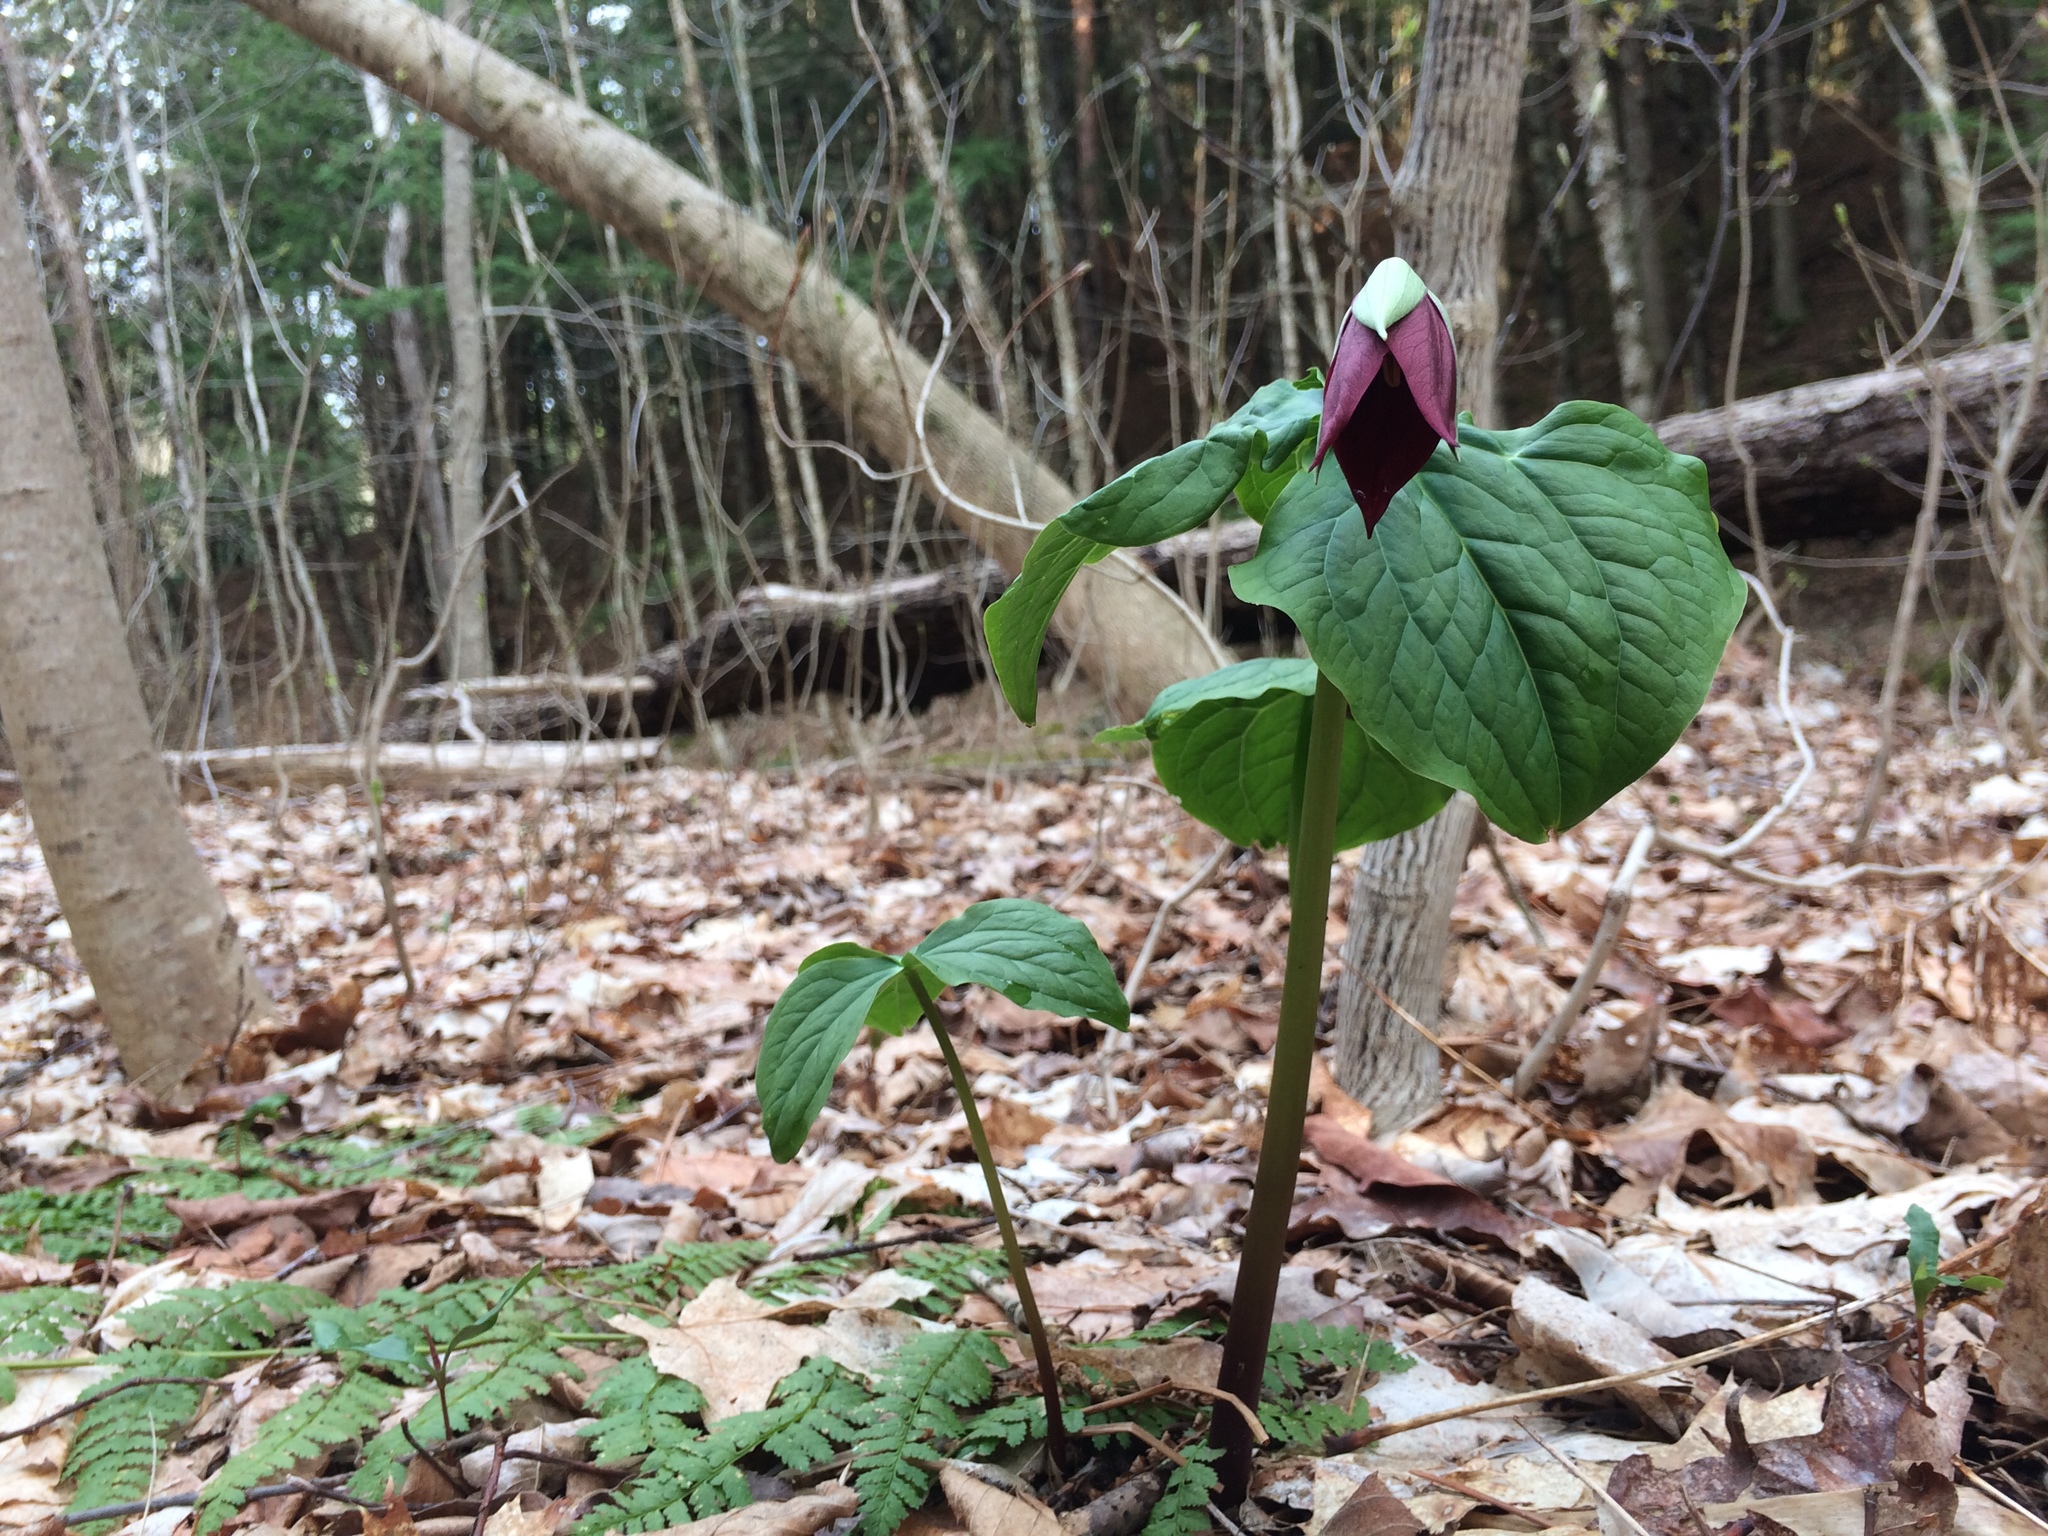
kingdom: Plantae
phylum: Tracheophyta
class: Liliopsida
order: Liliales
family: Melanthiaceae
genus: Trillium
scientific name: Trillium erectum
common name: Purple trillium
